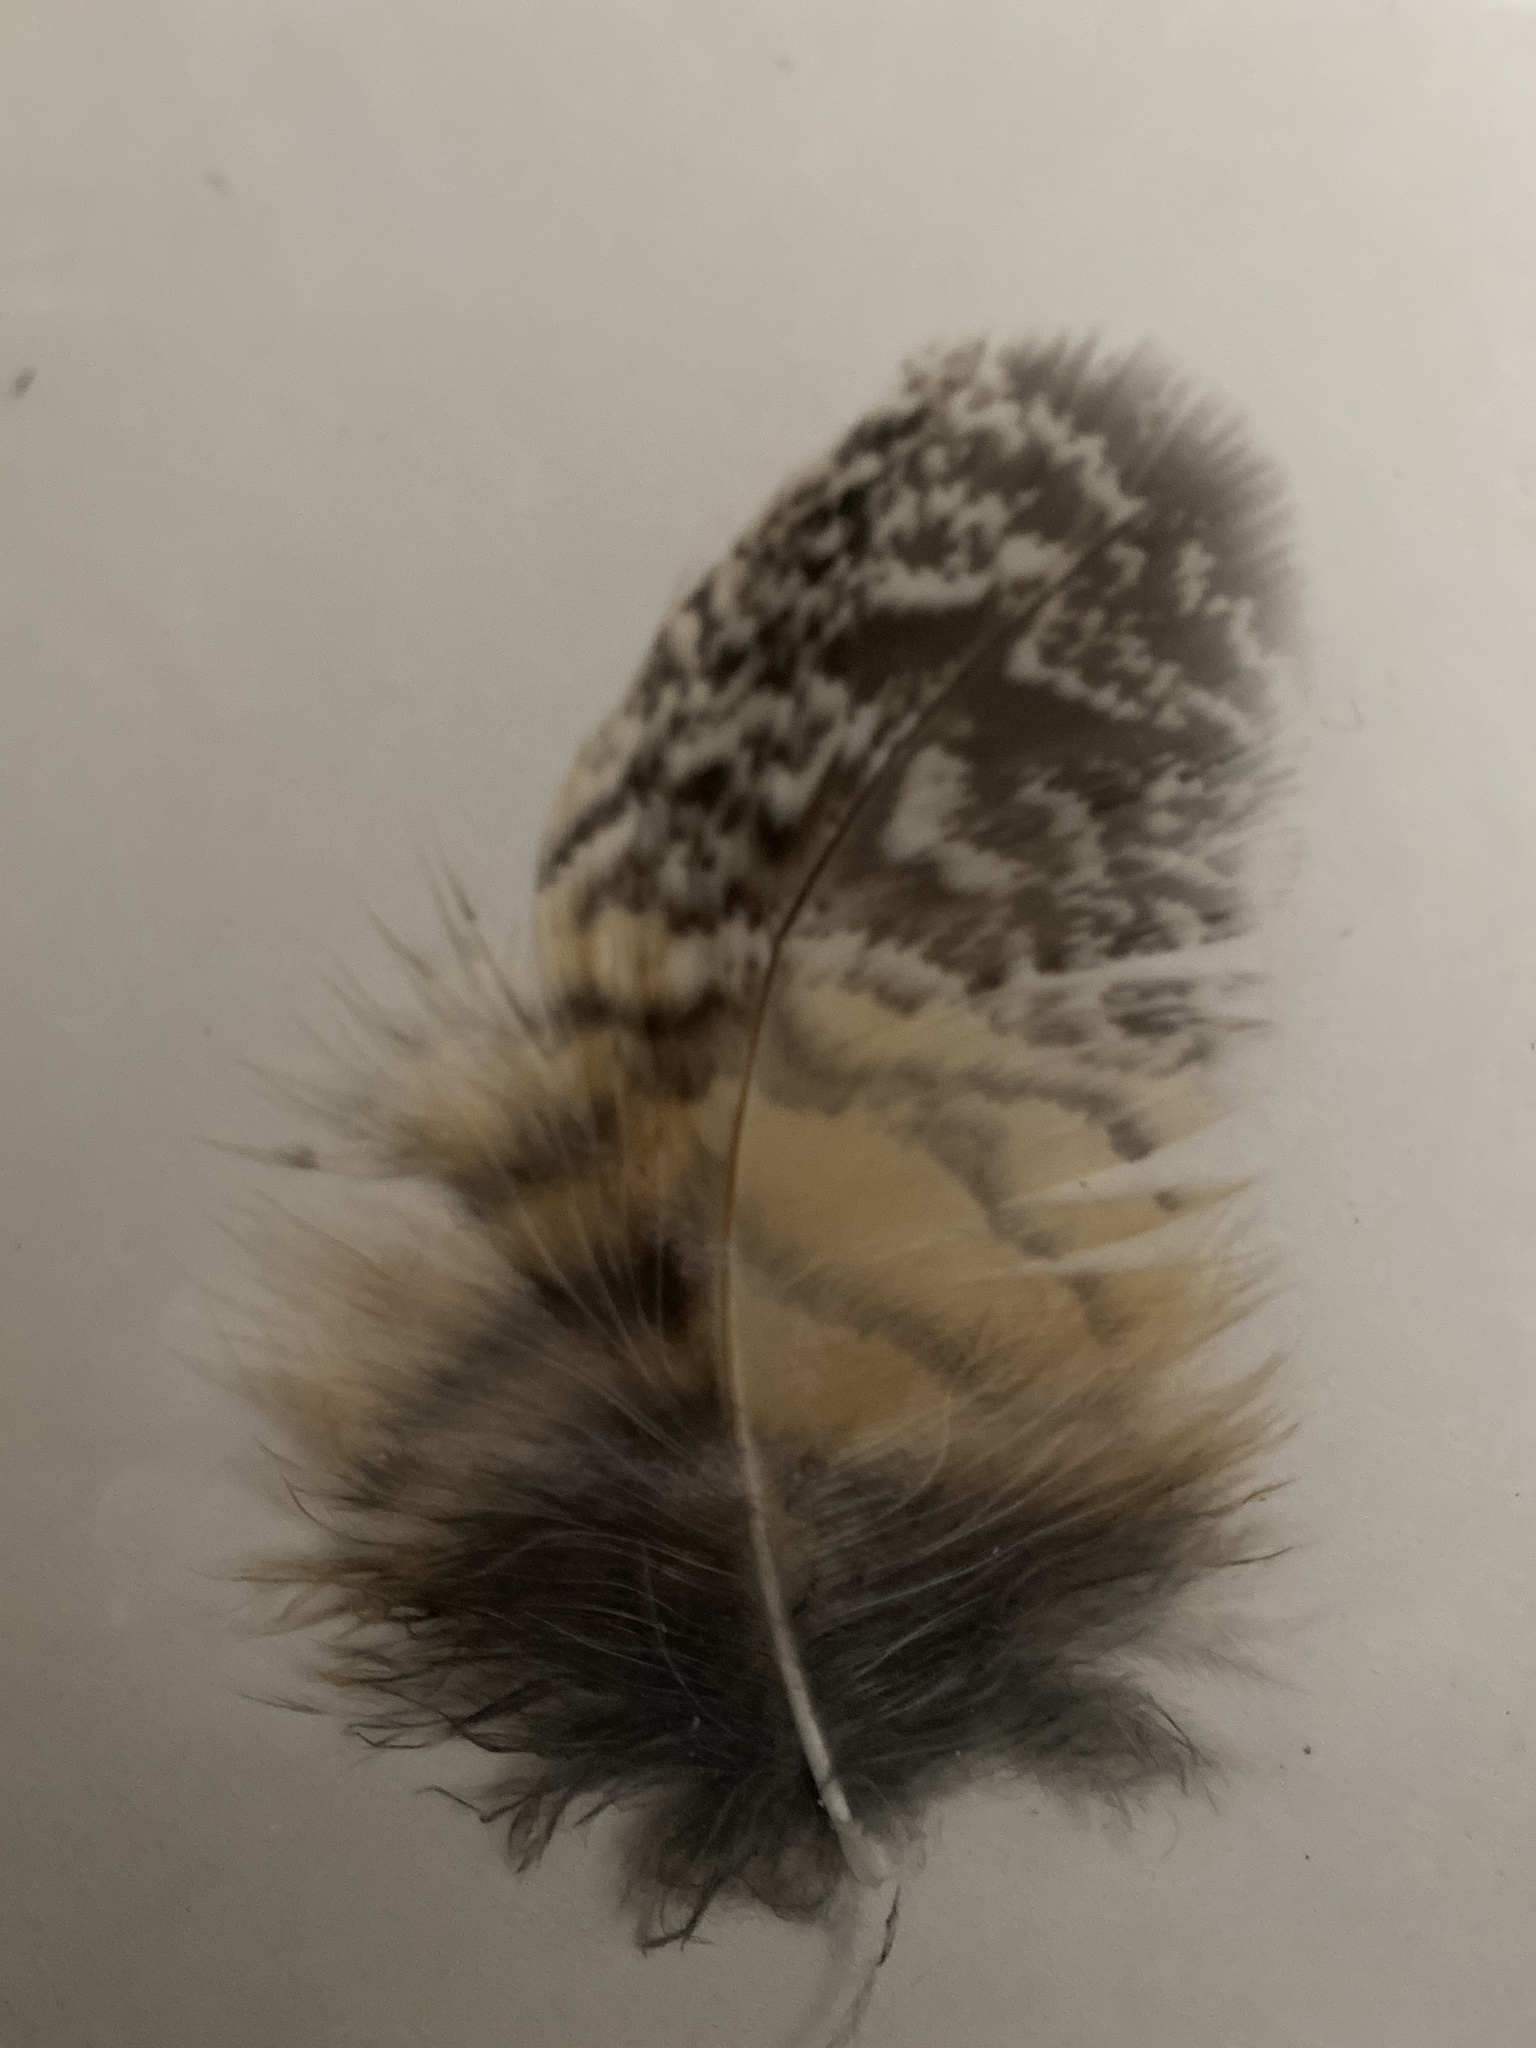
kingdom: Animalia
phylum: Chordata
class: Aves
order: Strigiformes
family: Strigidae
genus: Bubo
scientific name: Bubo virginianus
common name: Great horned owl
